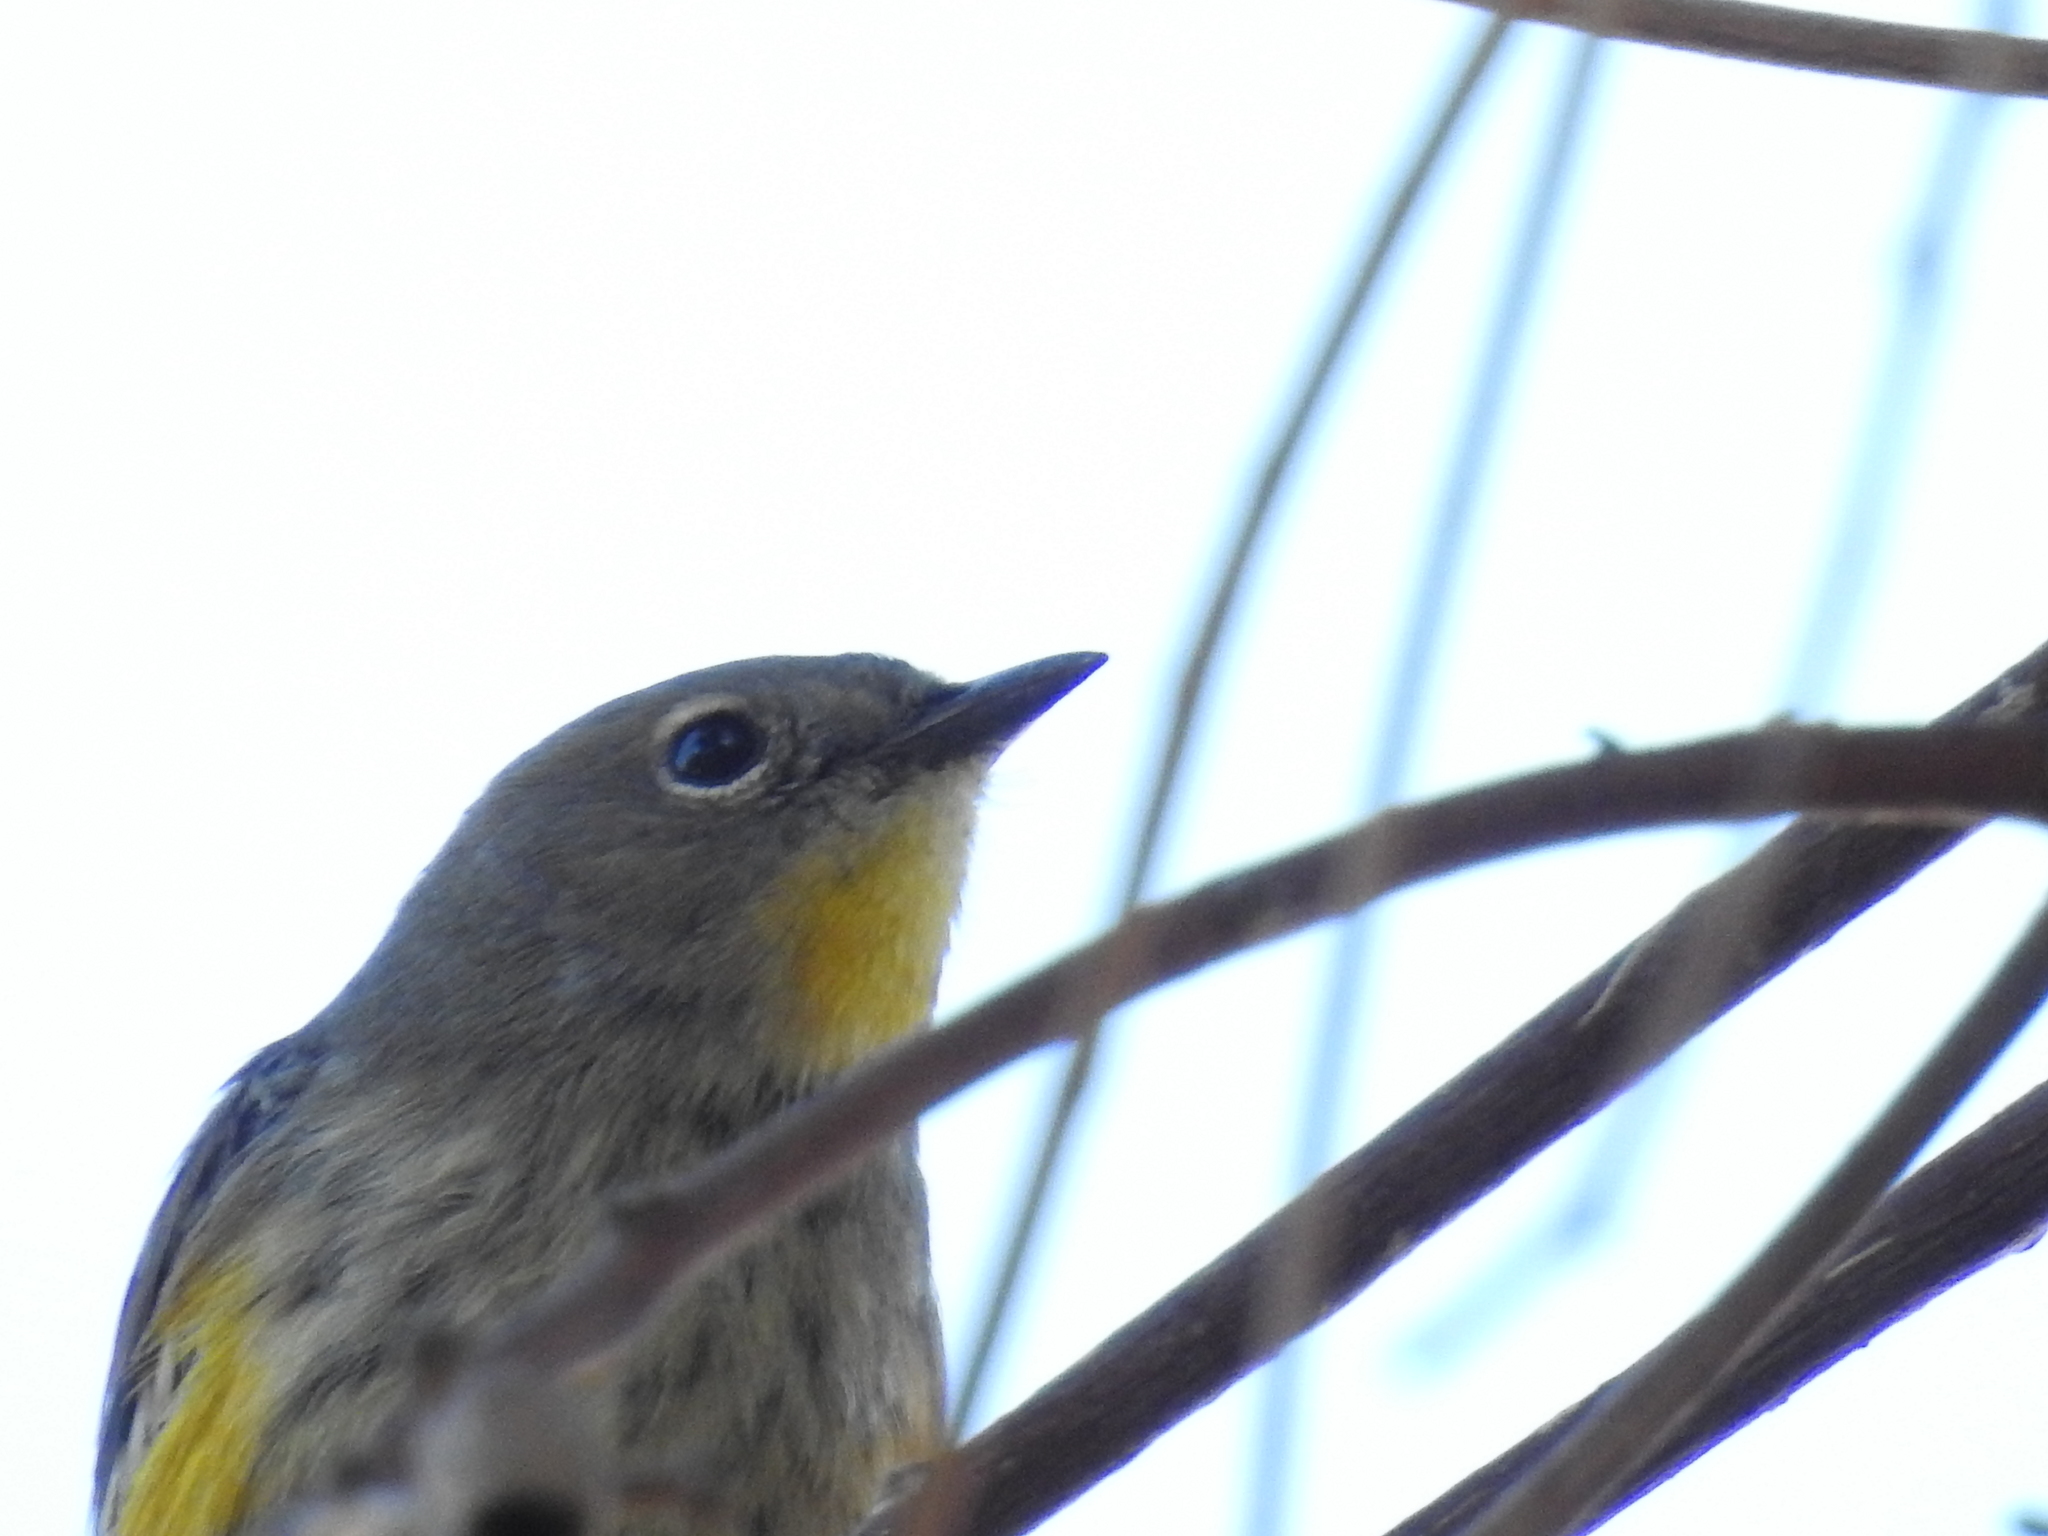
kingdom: Animalia
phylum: Chordata
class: Aves
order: Passeriformes
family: Parulidae
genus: Setophaga
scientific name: Setophaga coronata
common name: Myrtle warbler
